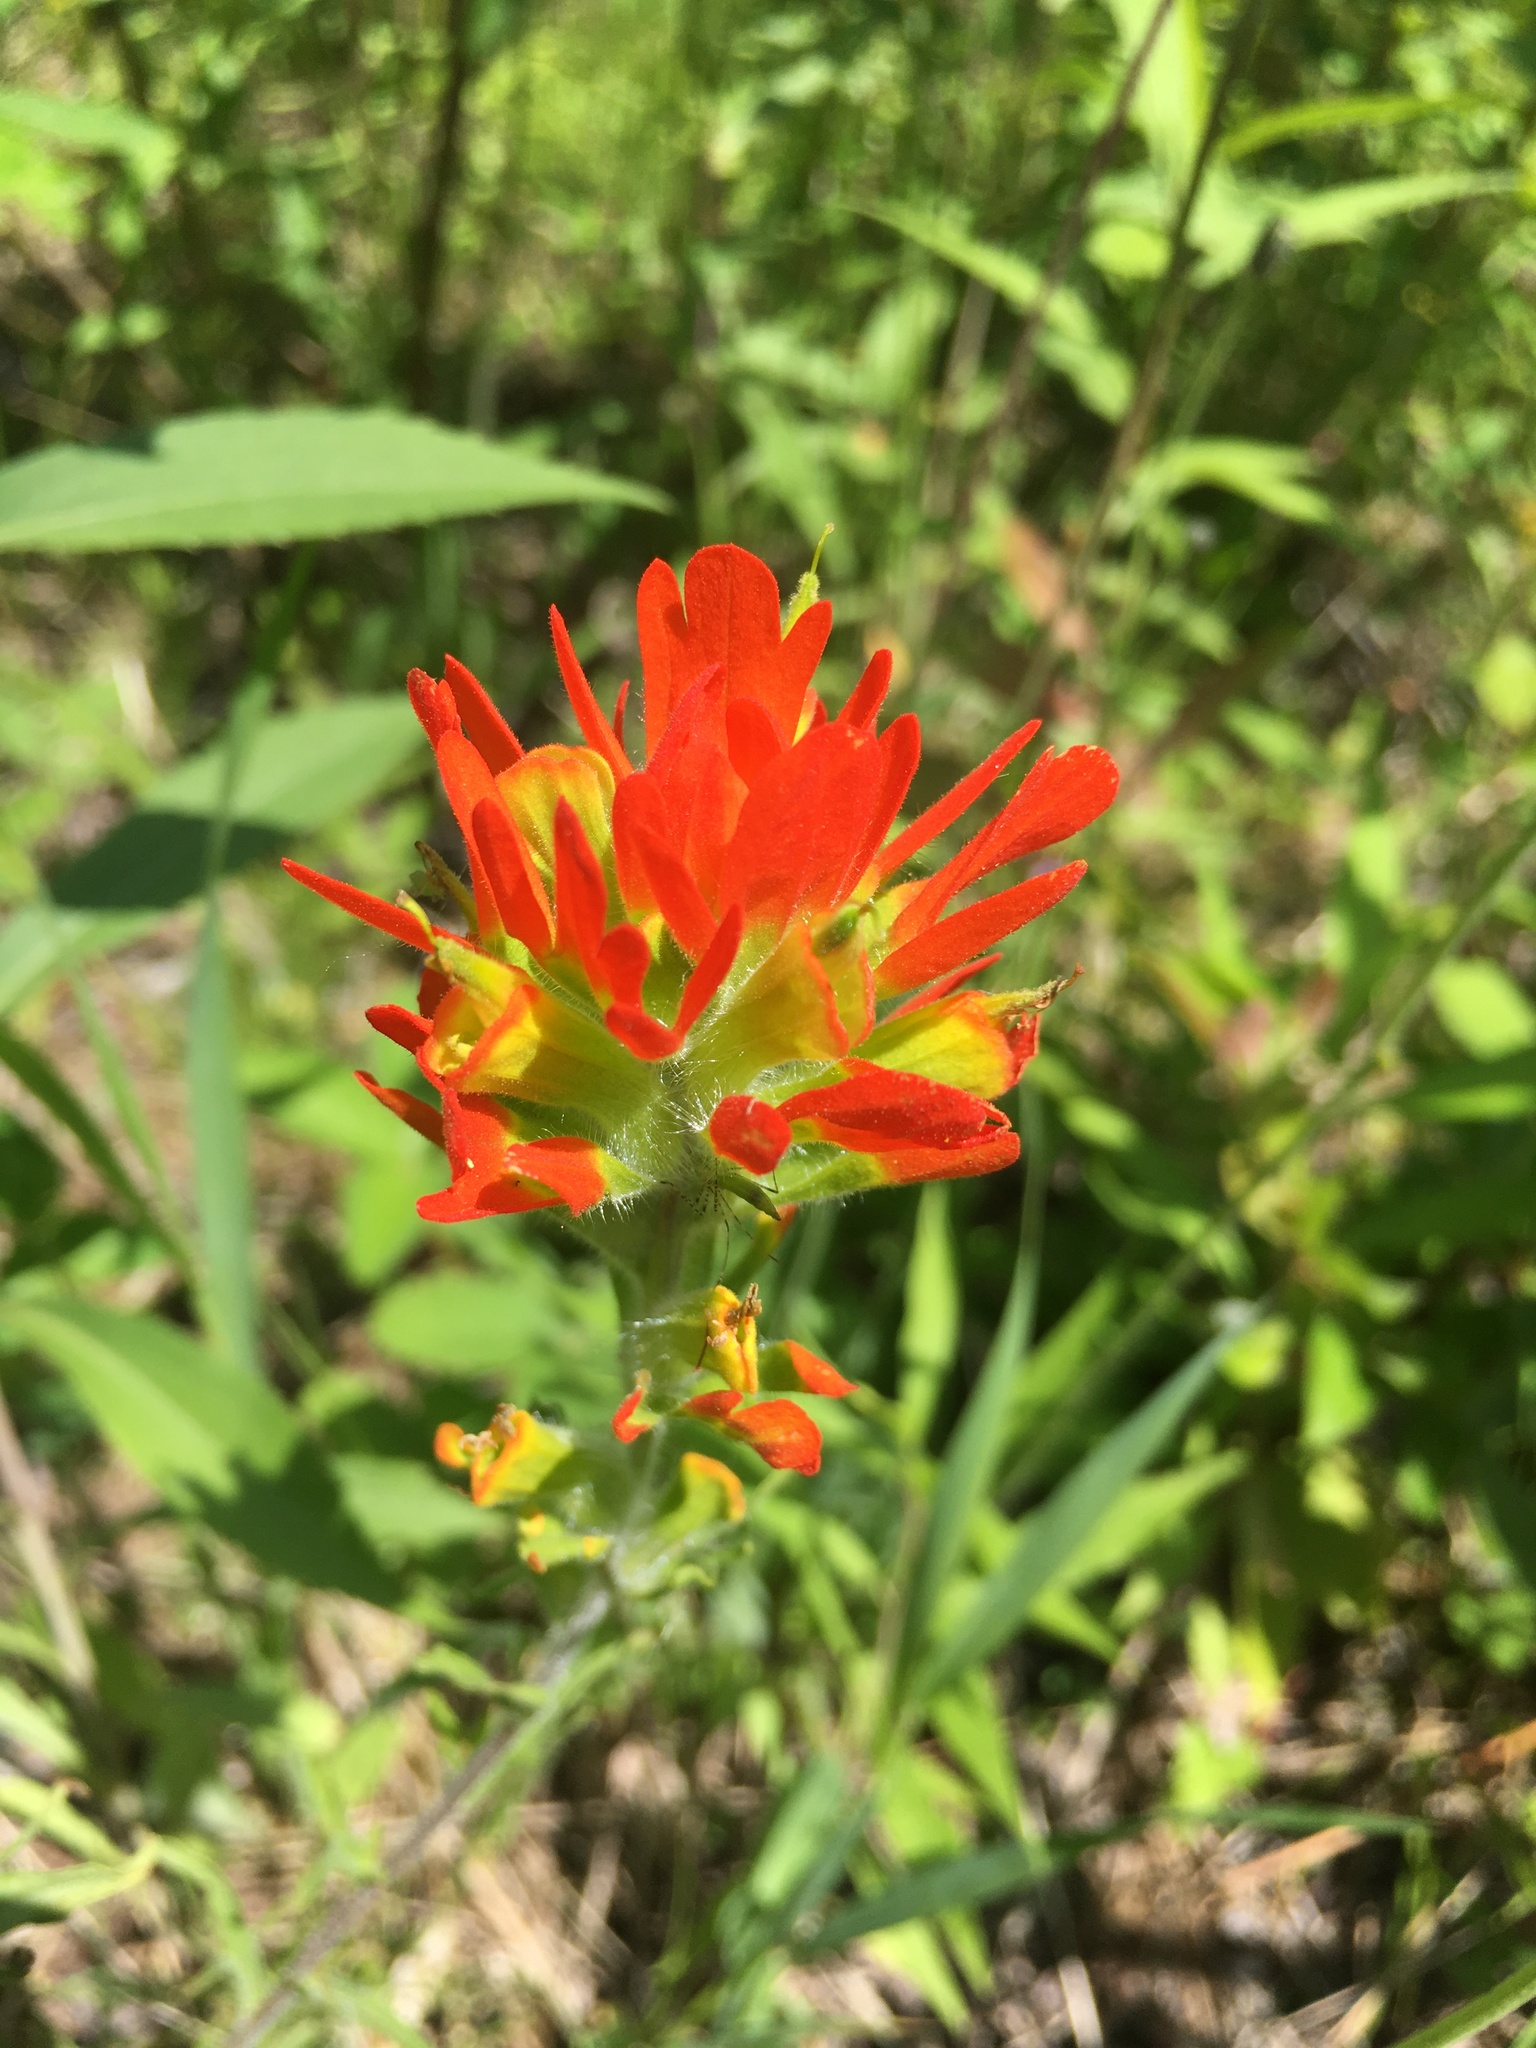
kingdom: Plantae
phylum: Tracheophyta
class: Magnoliopsida
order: Lamiales
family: Orobanchaceae
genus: Castilleja
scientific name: Castilleja coccinea
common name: Scarlet paintbrush
